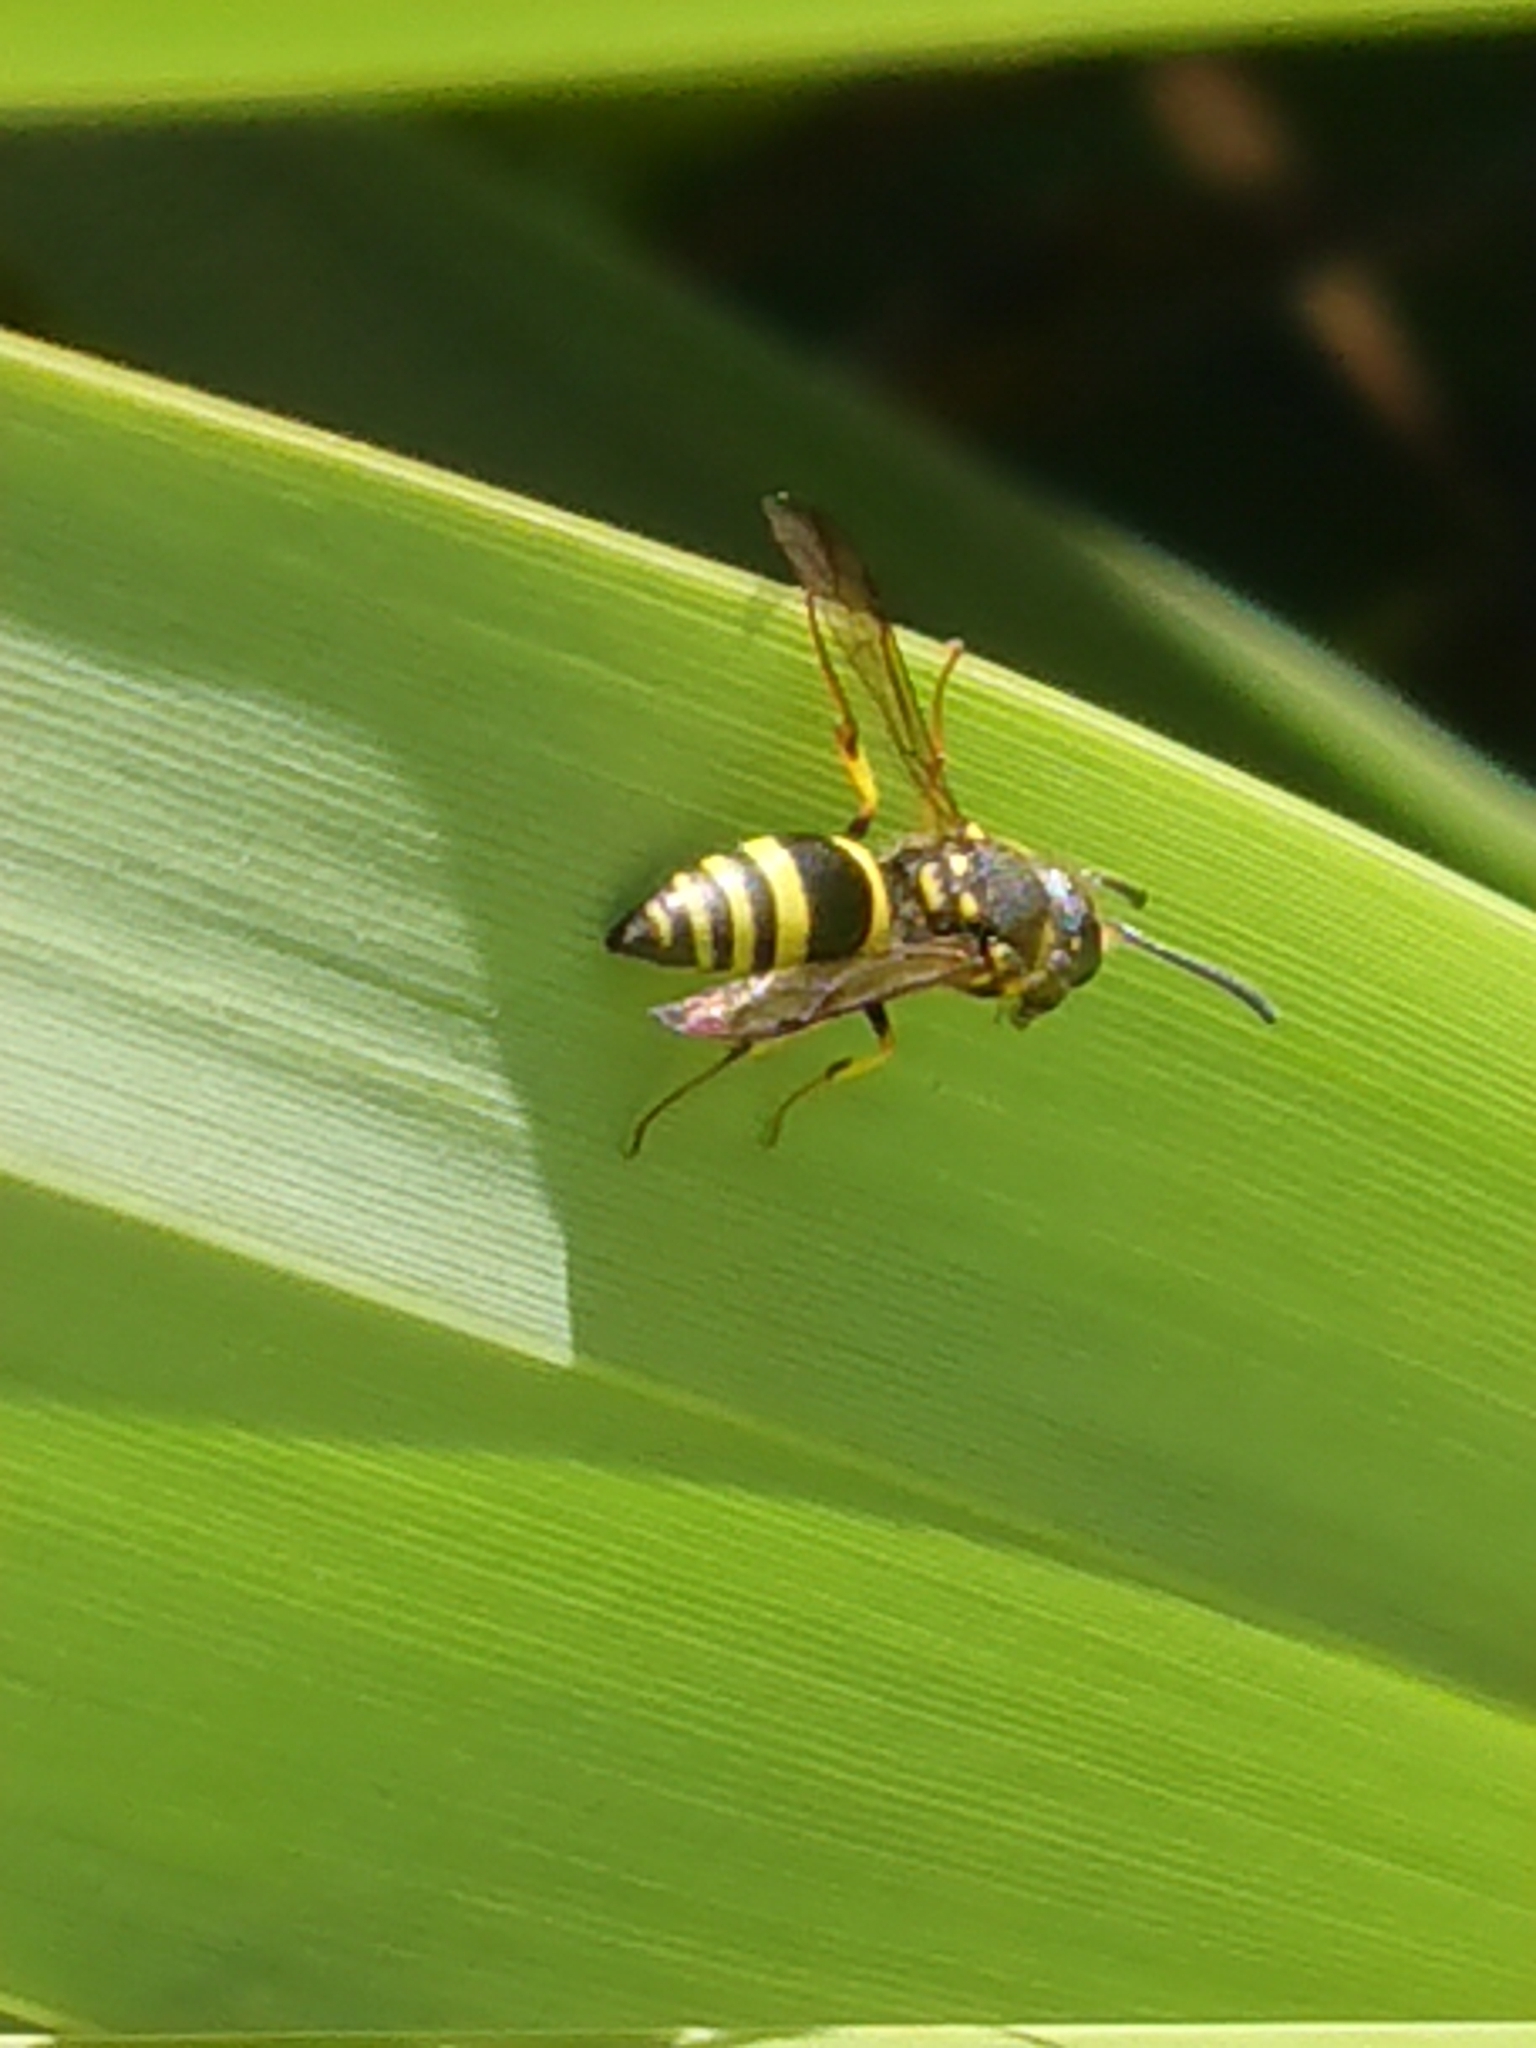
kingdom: Animalia
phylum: Arthropoda
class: Insecta
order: Hymenoptera
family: Vespidae
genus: Ancistrocerus
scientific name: Ancistrocerus gazella
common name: European tube wasp
